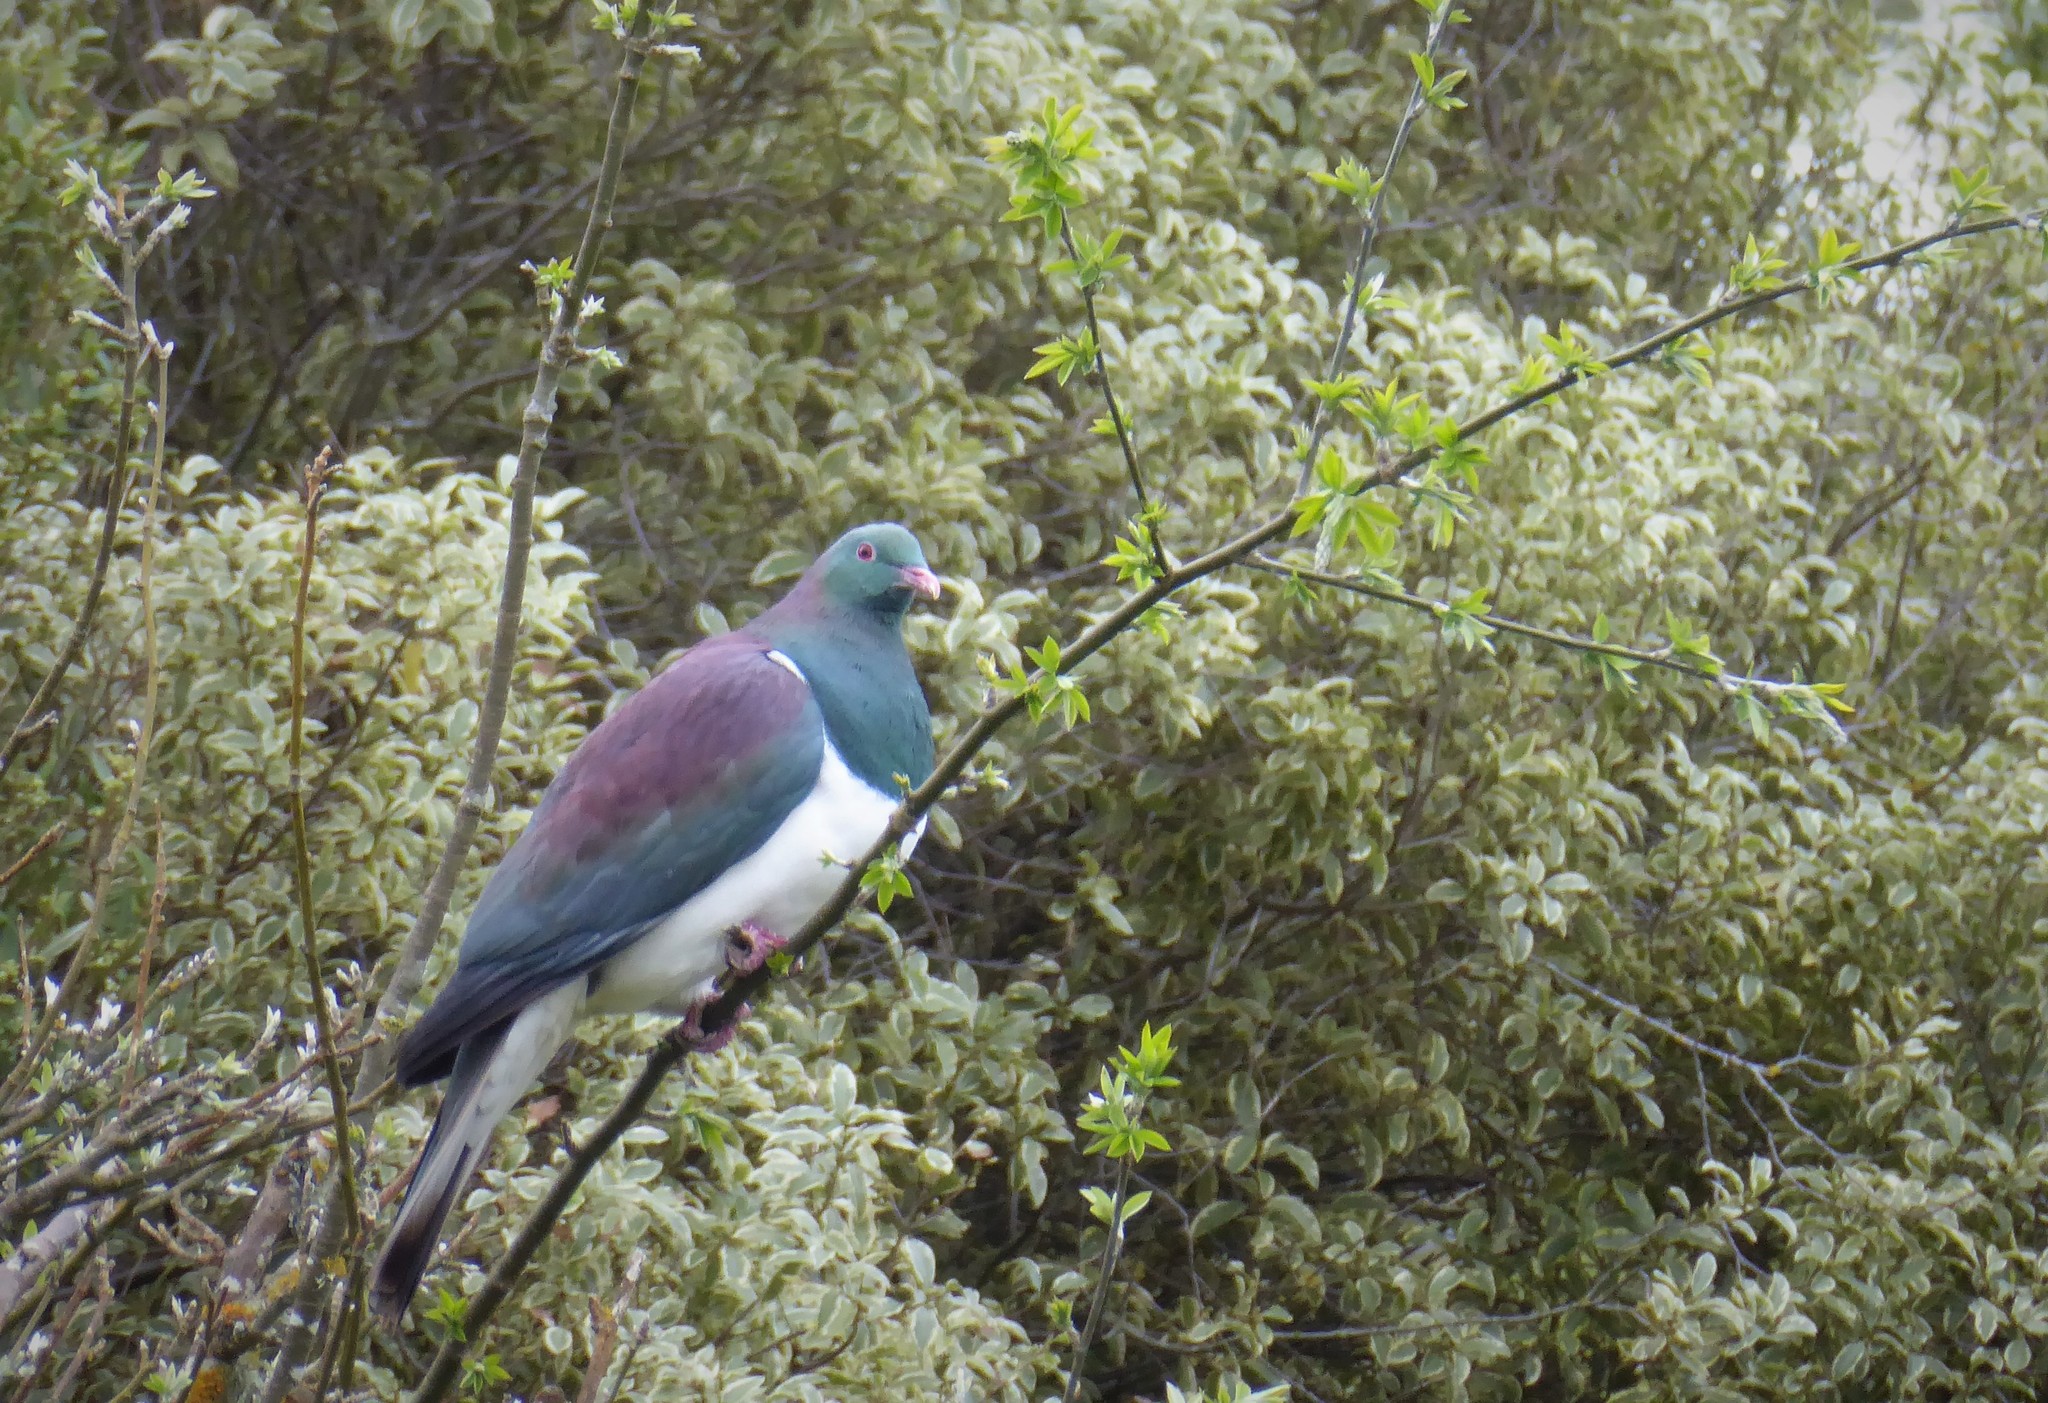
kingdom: Animalia
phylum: Chordata
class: Aves
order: Columbiformes
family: Columbidae
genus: Hemiphaga
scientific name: Hemiphaga novaeseelandiae
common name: New zealand pigeon
